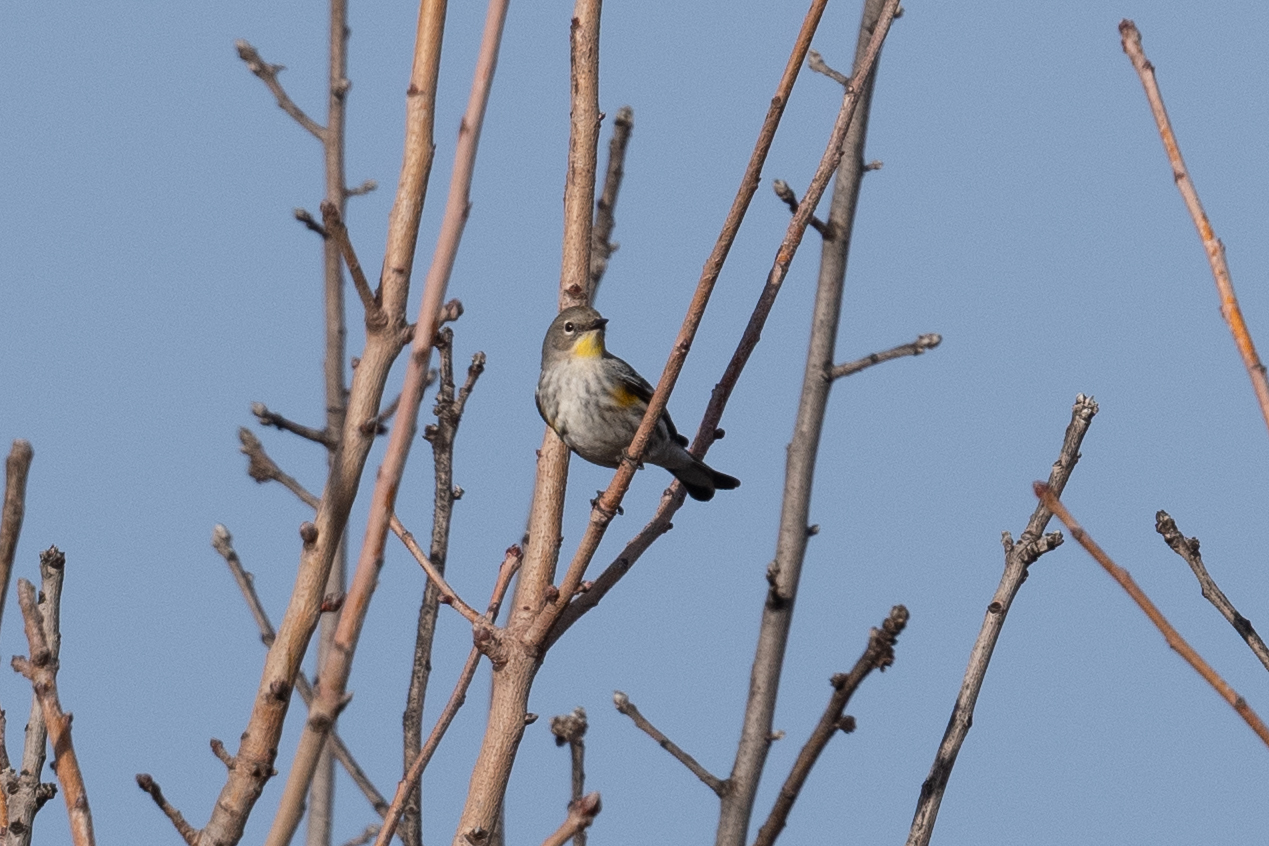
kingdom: Animalia
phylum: Chordata
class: Aves
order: Passeriformes
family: Parulidae
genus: Setophaga
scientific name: Setophaga coronata
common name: Myrtle warbler
